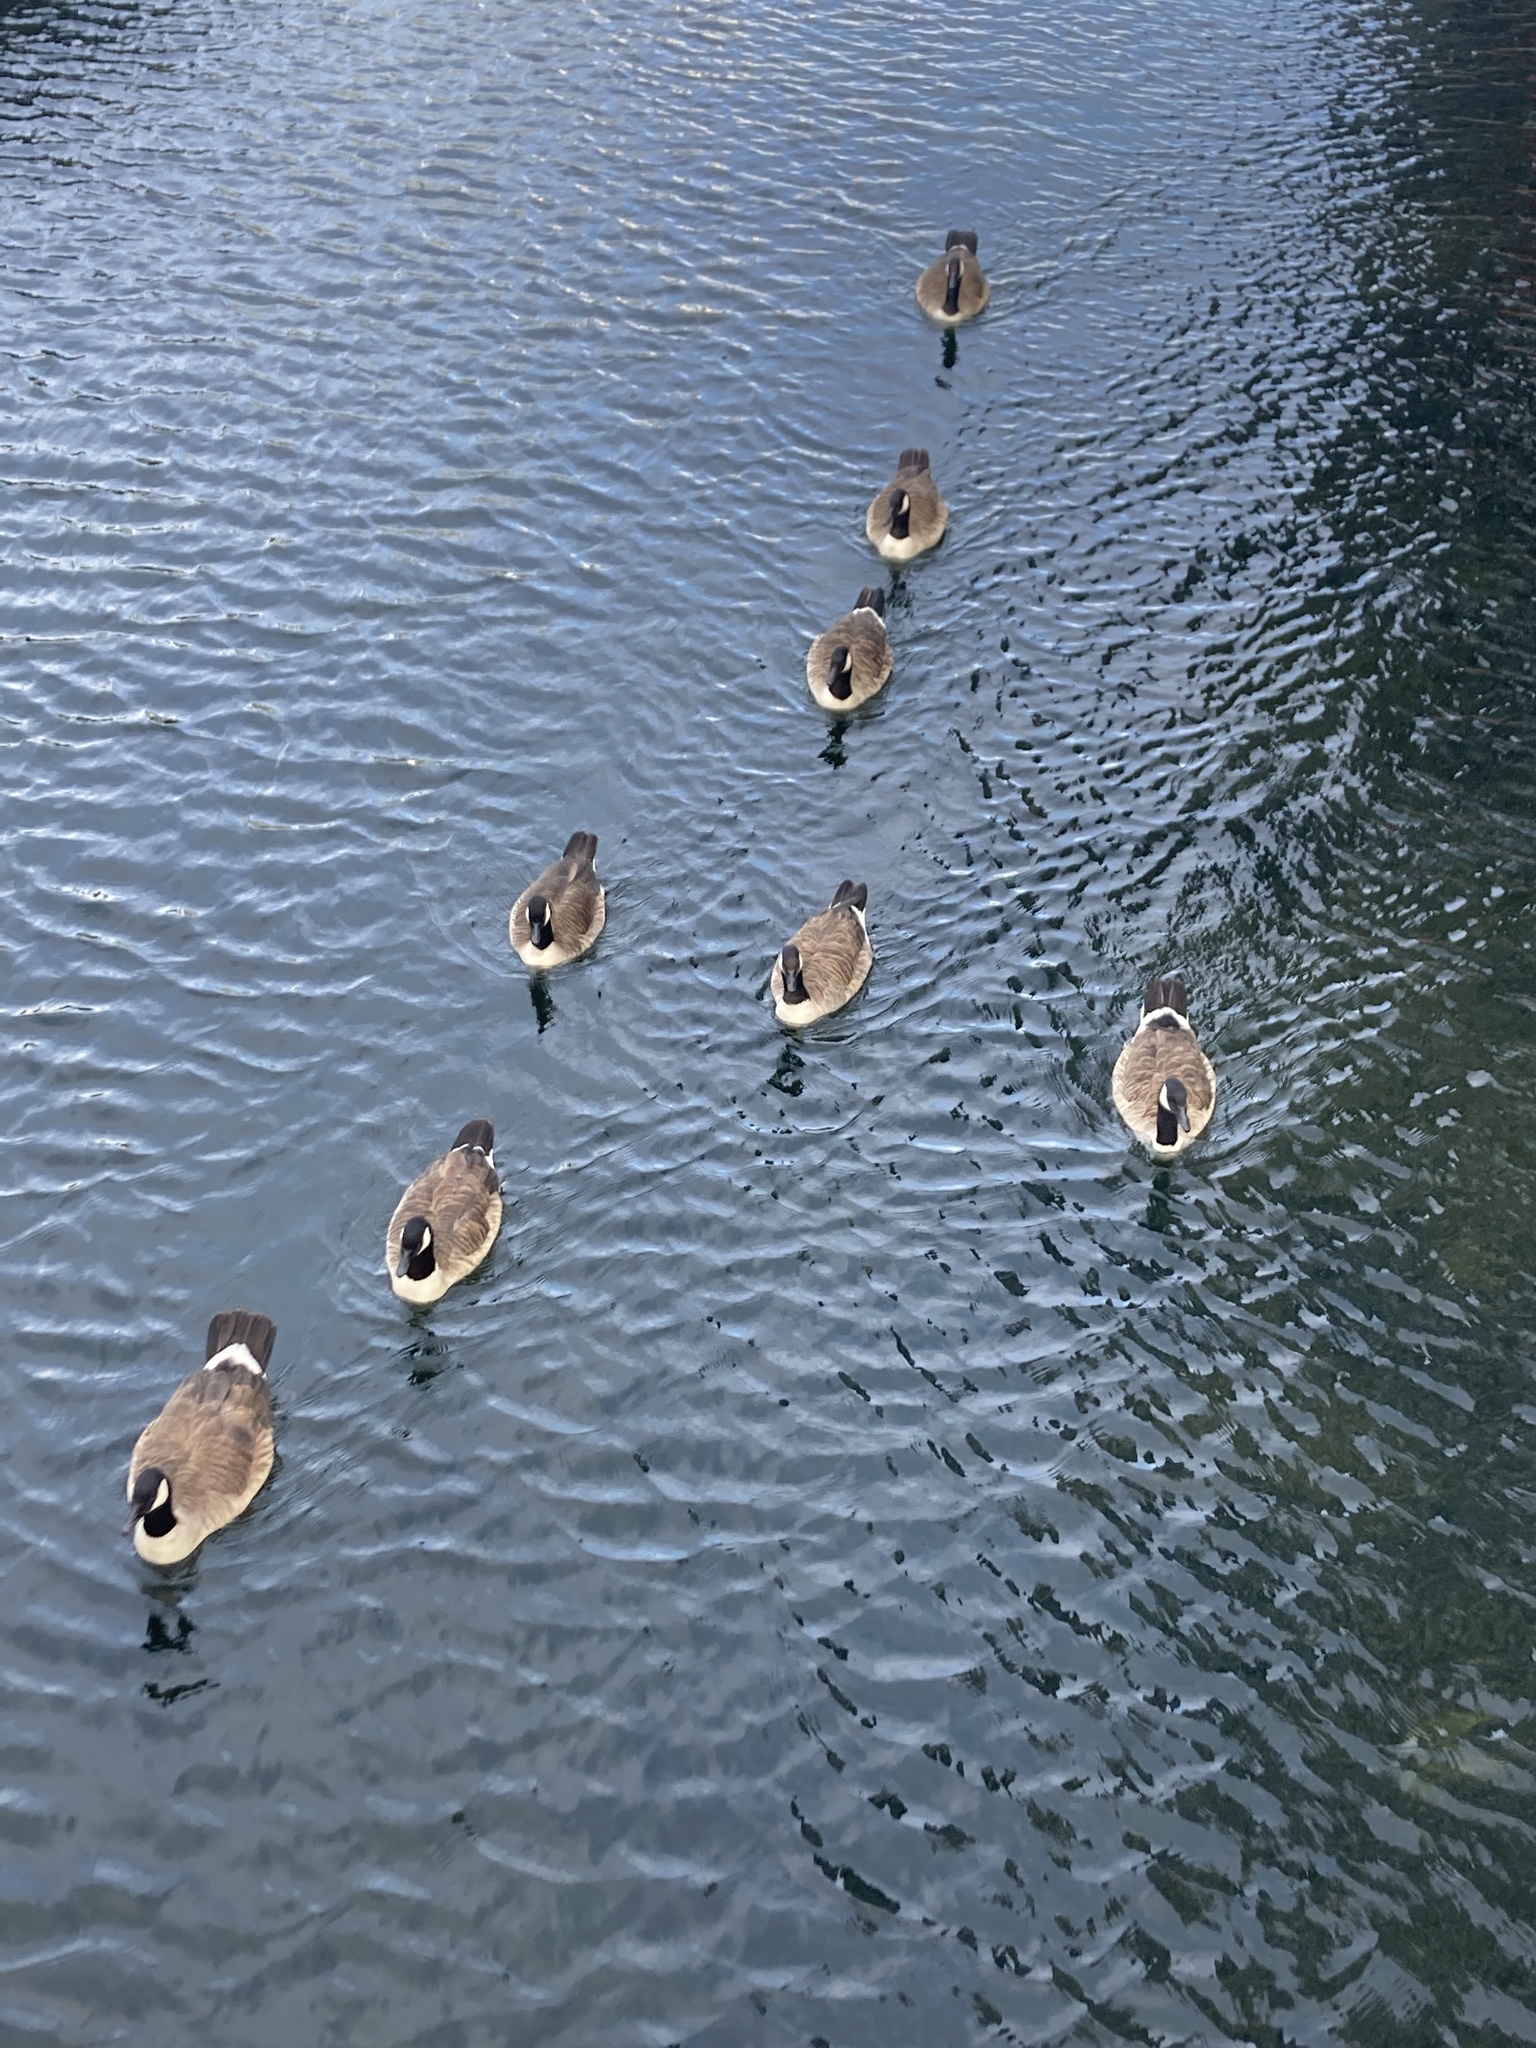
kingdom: Animalia
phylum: Chordata
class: Aves
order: Anseriformes
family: Anatidae
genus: Branta
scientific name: Branta canadensis
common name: Canada goose
